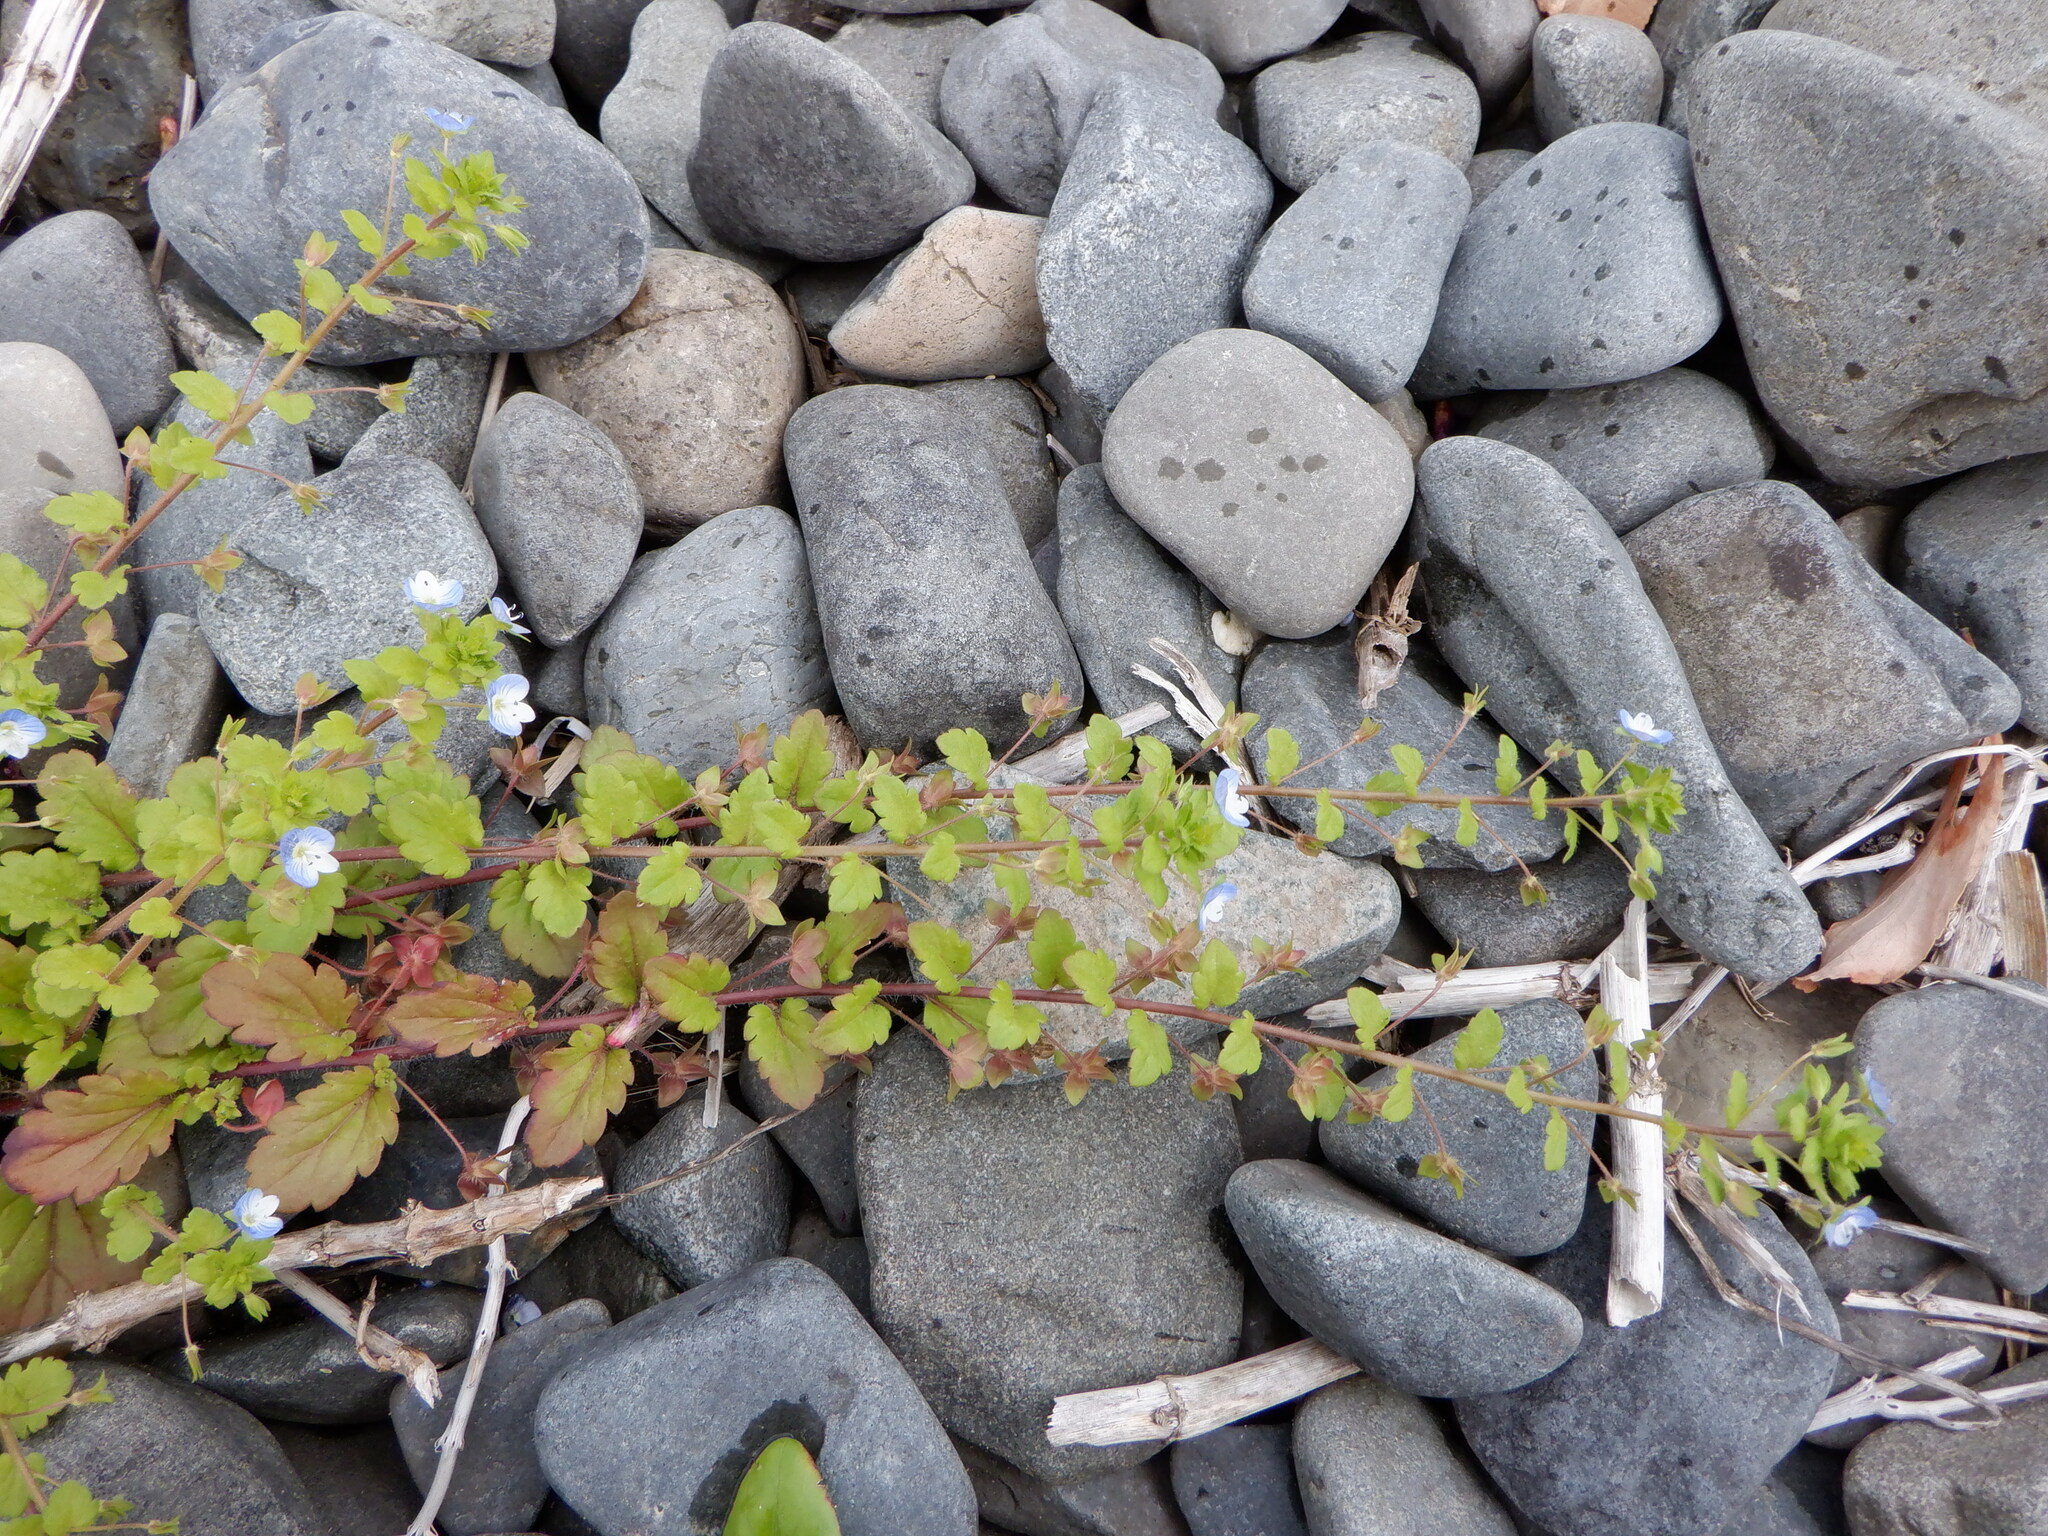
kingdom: Plantae
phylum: Tracheophyta
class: Magnoliopsida
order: Lamiales
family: Plantaginaceae
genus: Veronica
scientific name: Veronica persica
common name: Common field-speedwell
